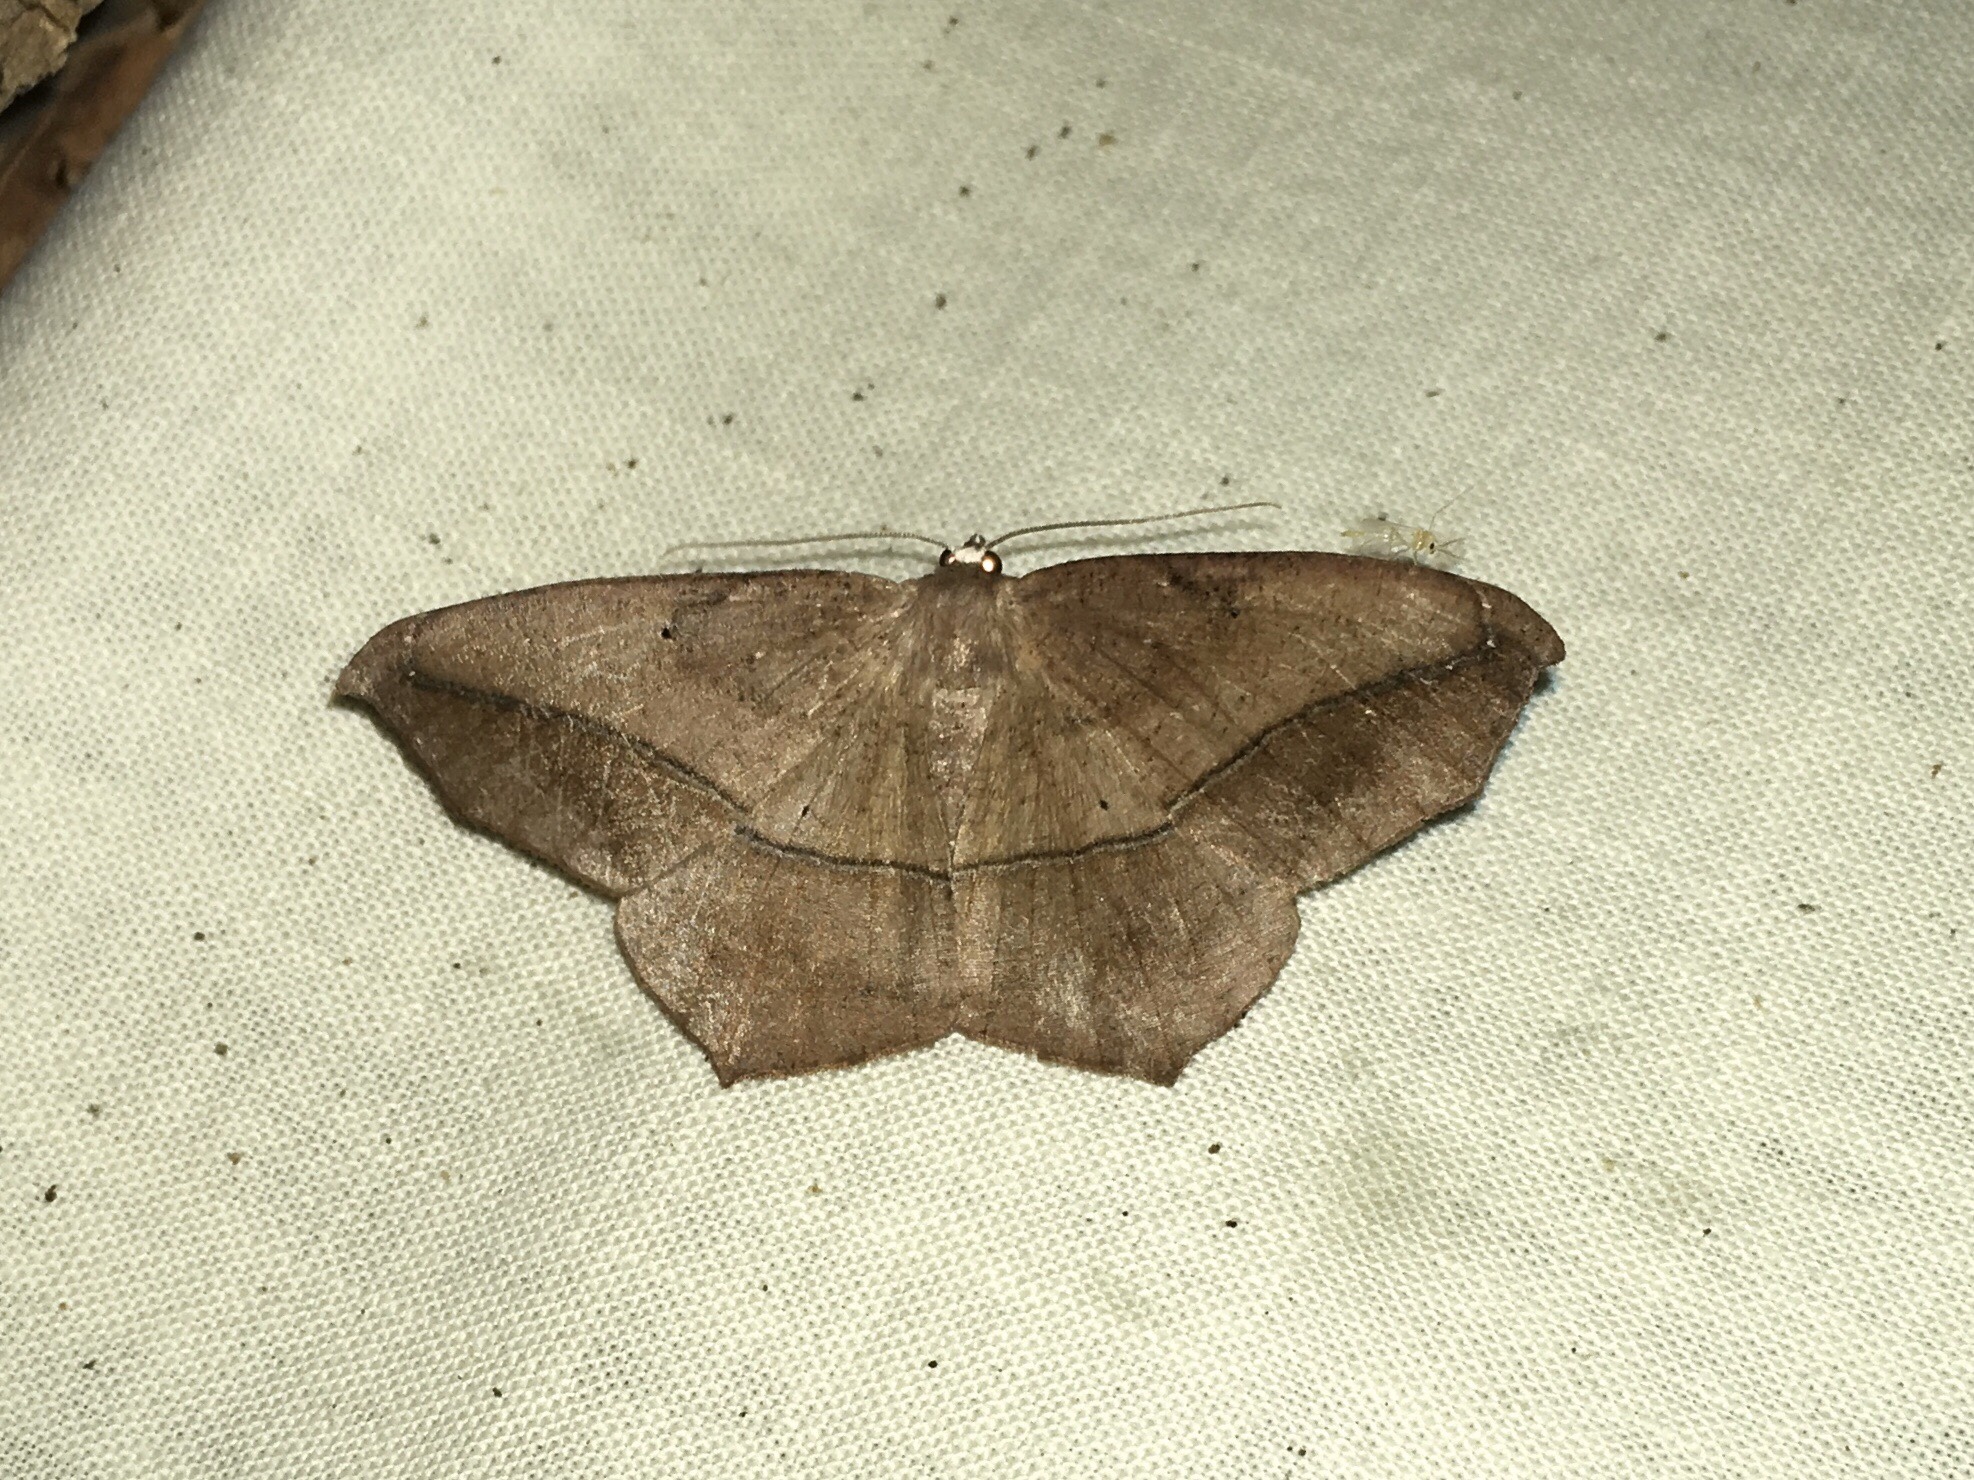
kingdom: Animalia
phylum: Arthropoda
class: Insecta
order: Lepidoptera
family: Geometridae
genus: Prochoerodes
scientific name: Prochoerodes lineola
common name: Large maple spanworm
